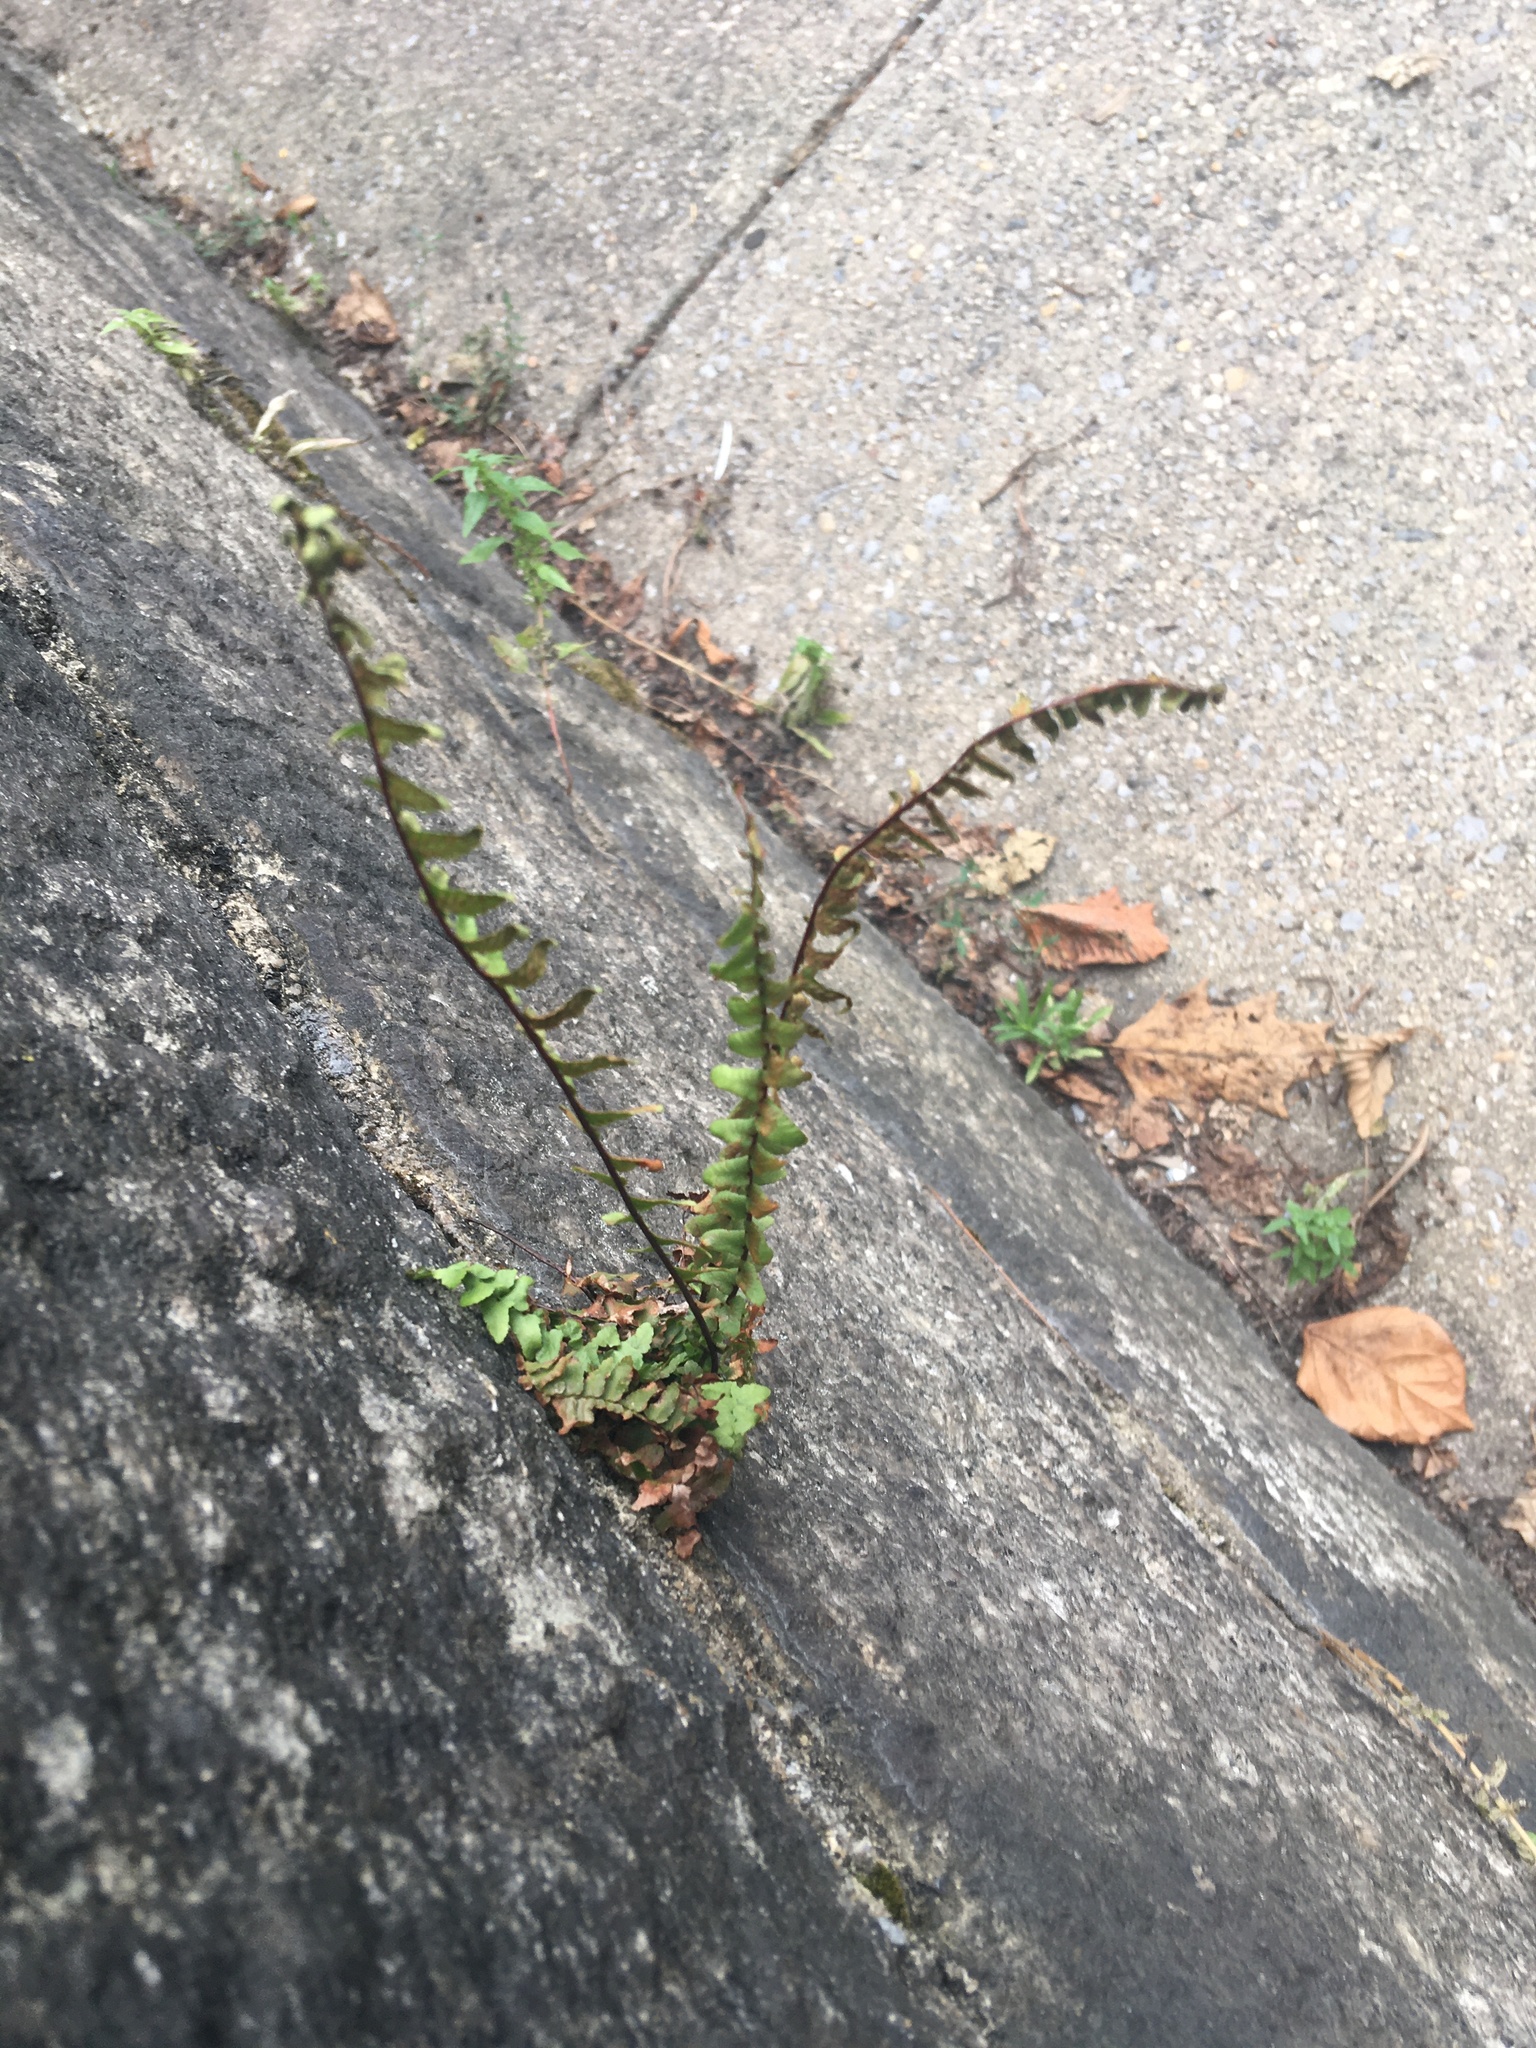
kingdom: Plantae
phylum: Tracheophyta
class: Polypodiopsida
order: Polypodiales
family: Aspleniaceae
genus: Asplenium
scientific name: Asplenium platyneuron
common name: Ebony spleenwort
